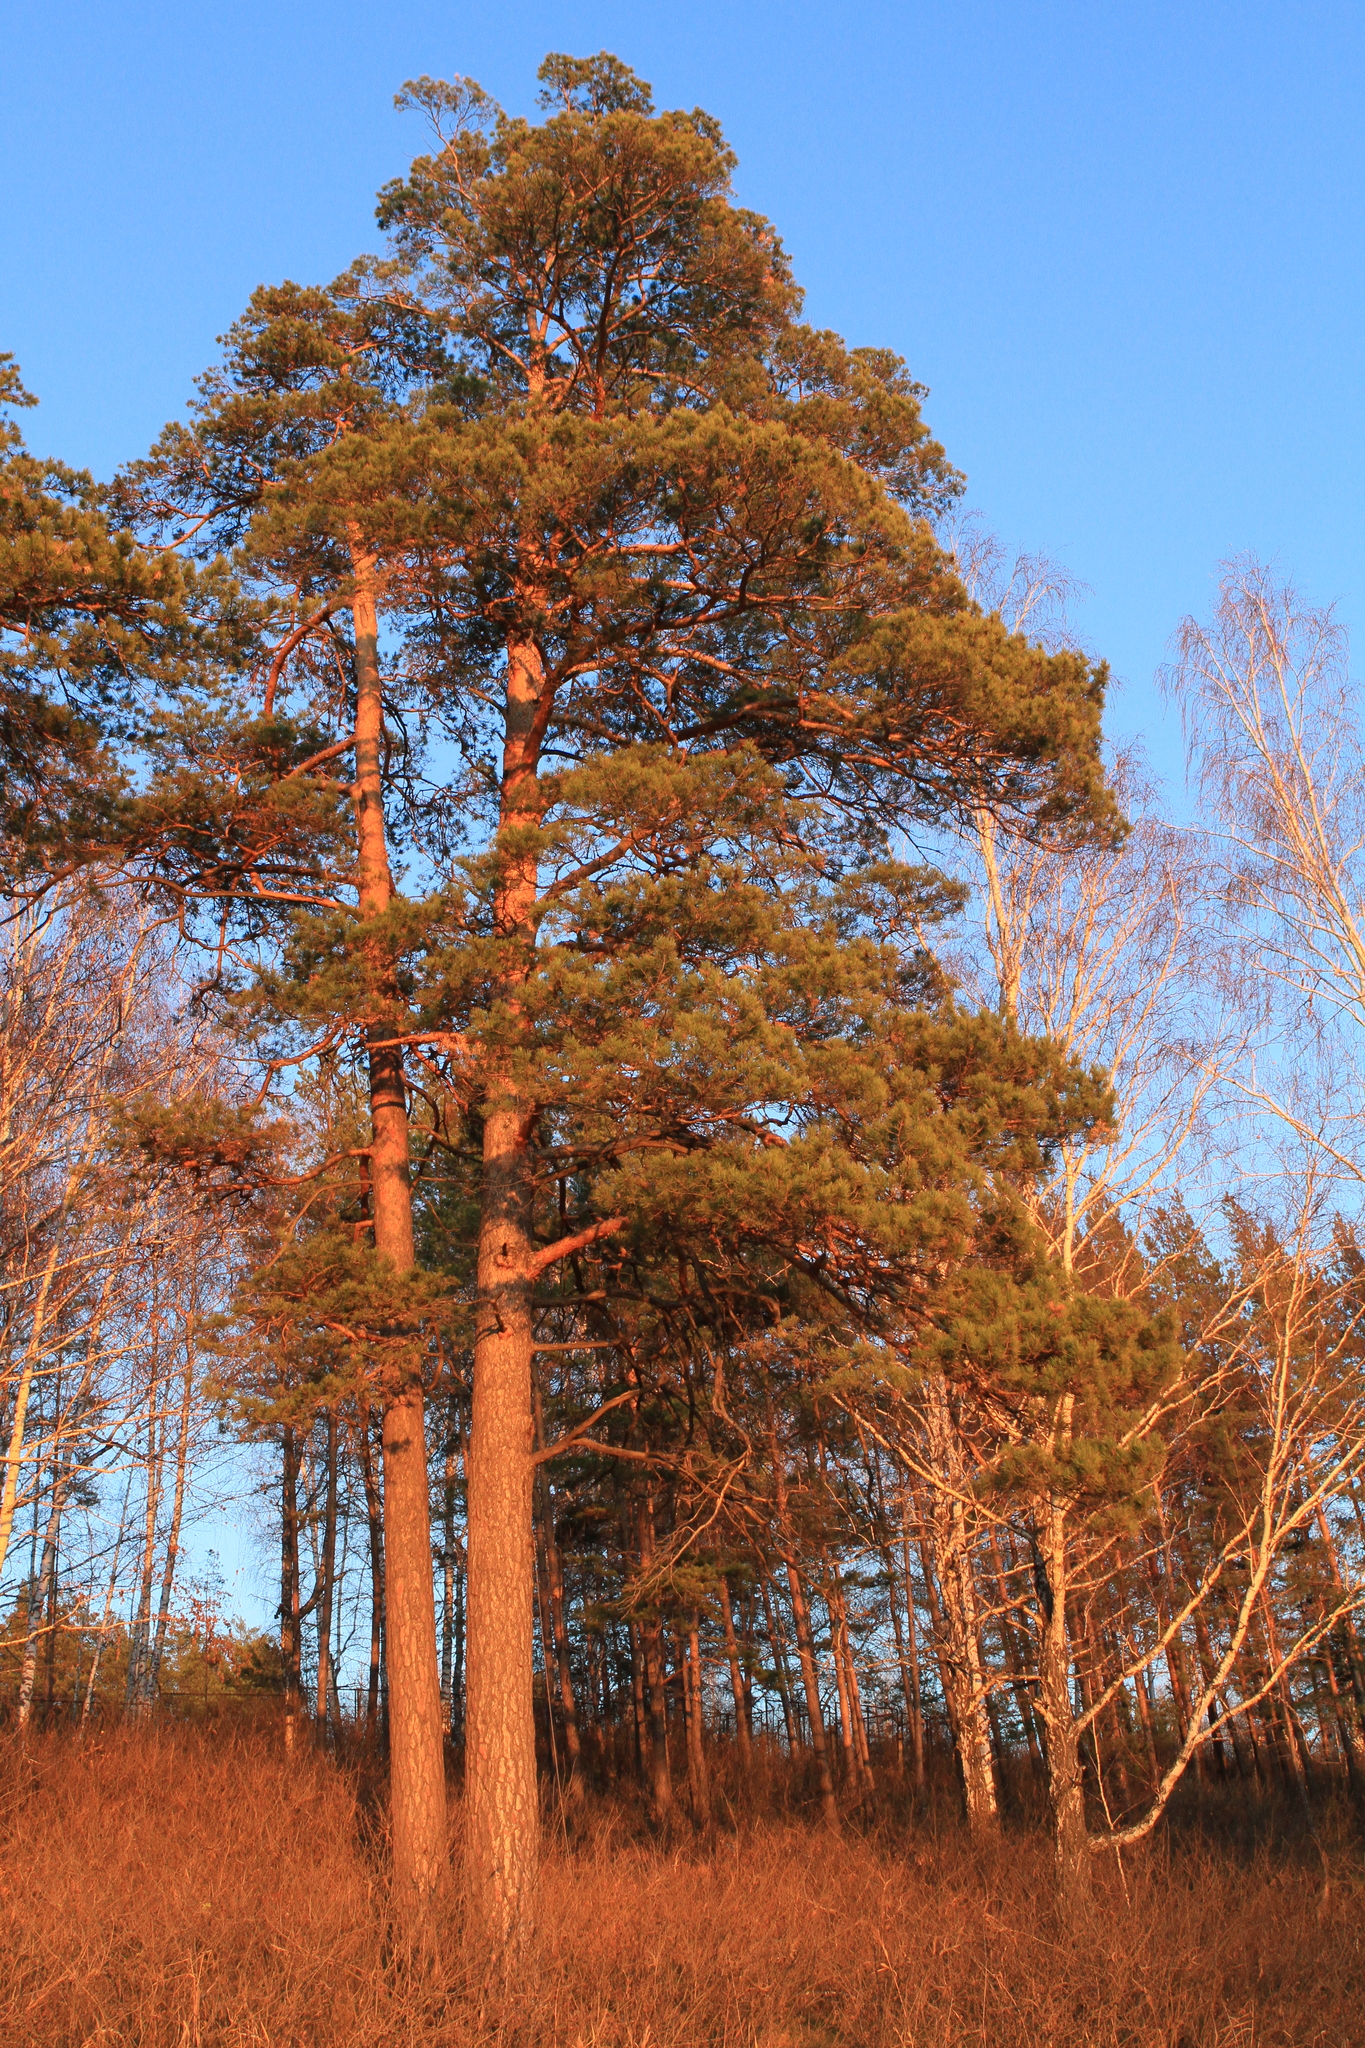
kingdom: Plantae
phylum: Tracheophyta
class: Pinopsida
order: Pinales
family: Pinaceae
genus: Pinus
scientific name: Pinus sylvestris
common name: Scots pine
